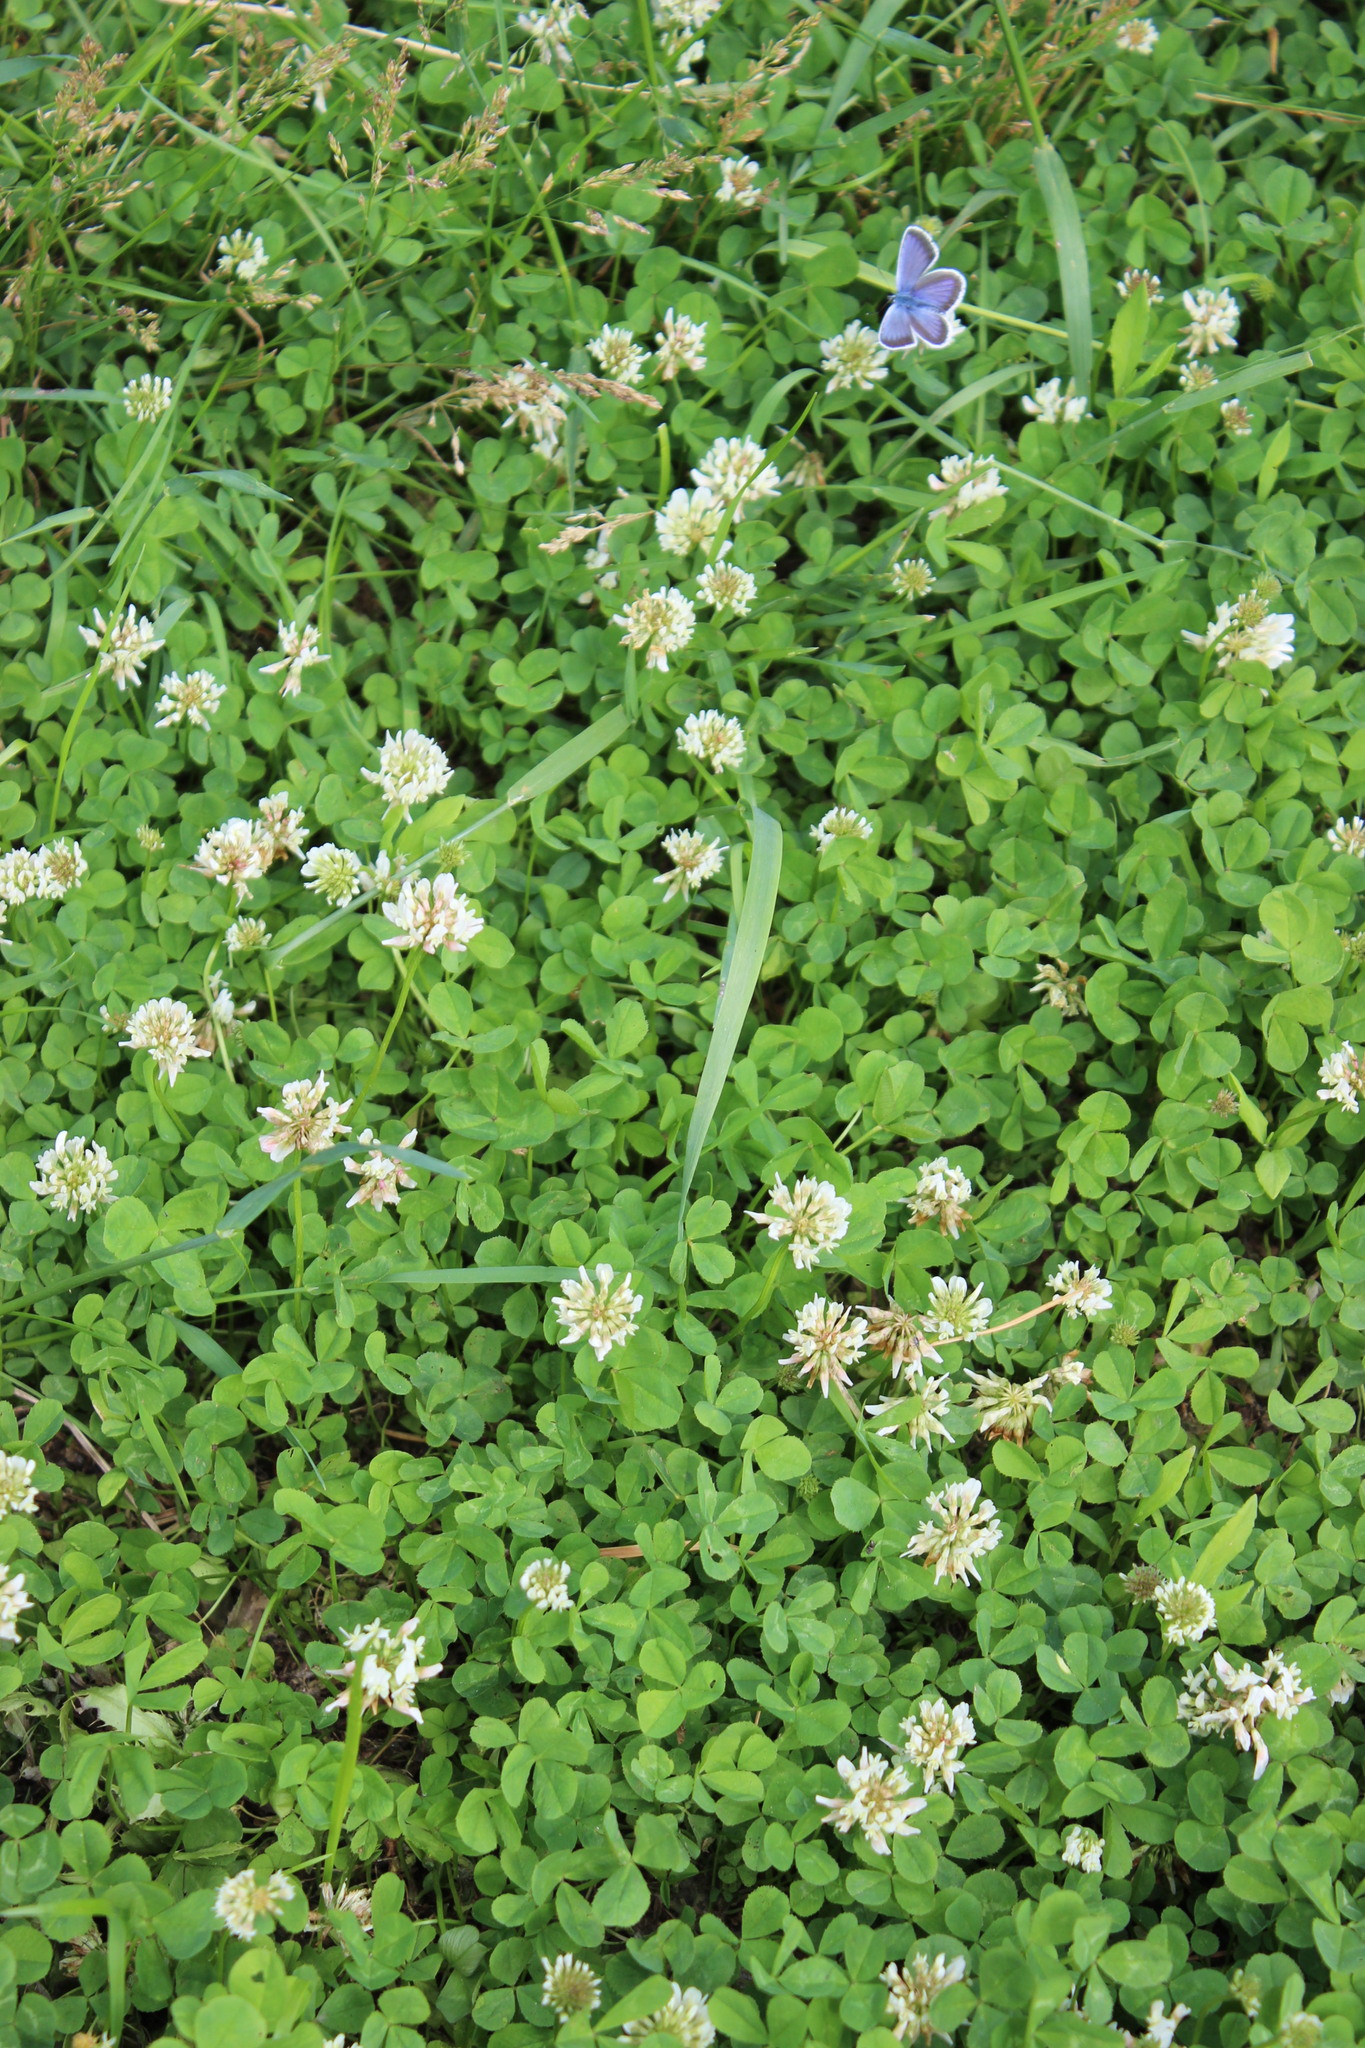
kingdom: Animalia
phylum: Arthropoda
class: Insecta
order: Lepidoptera
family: Lycaenidae
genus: Plebejus
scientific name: Plebejus argus
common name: Silver-studded blue
